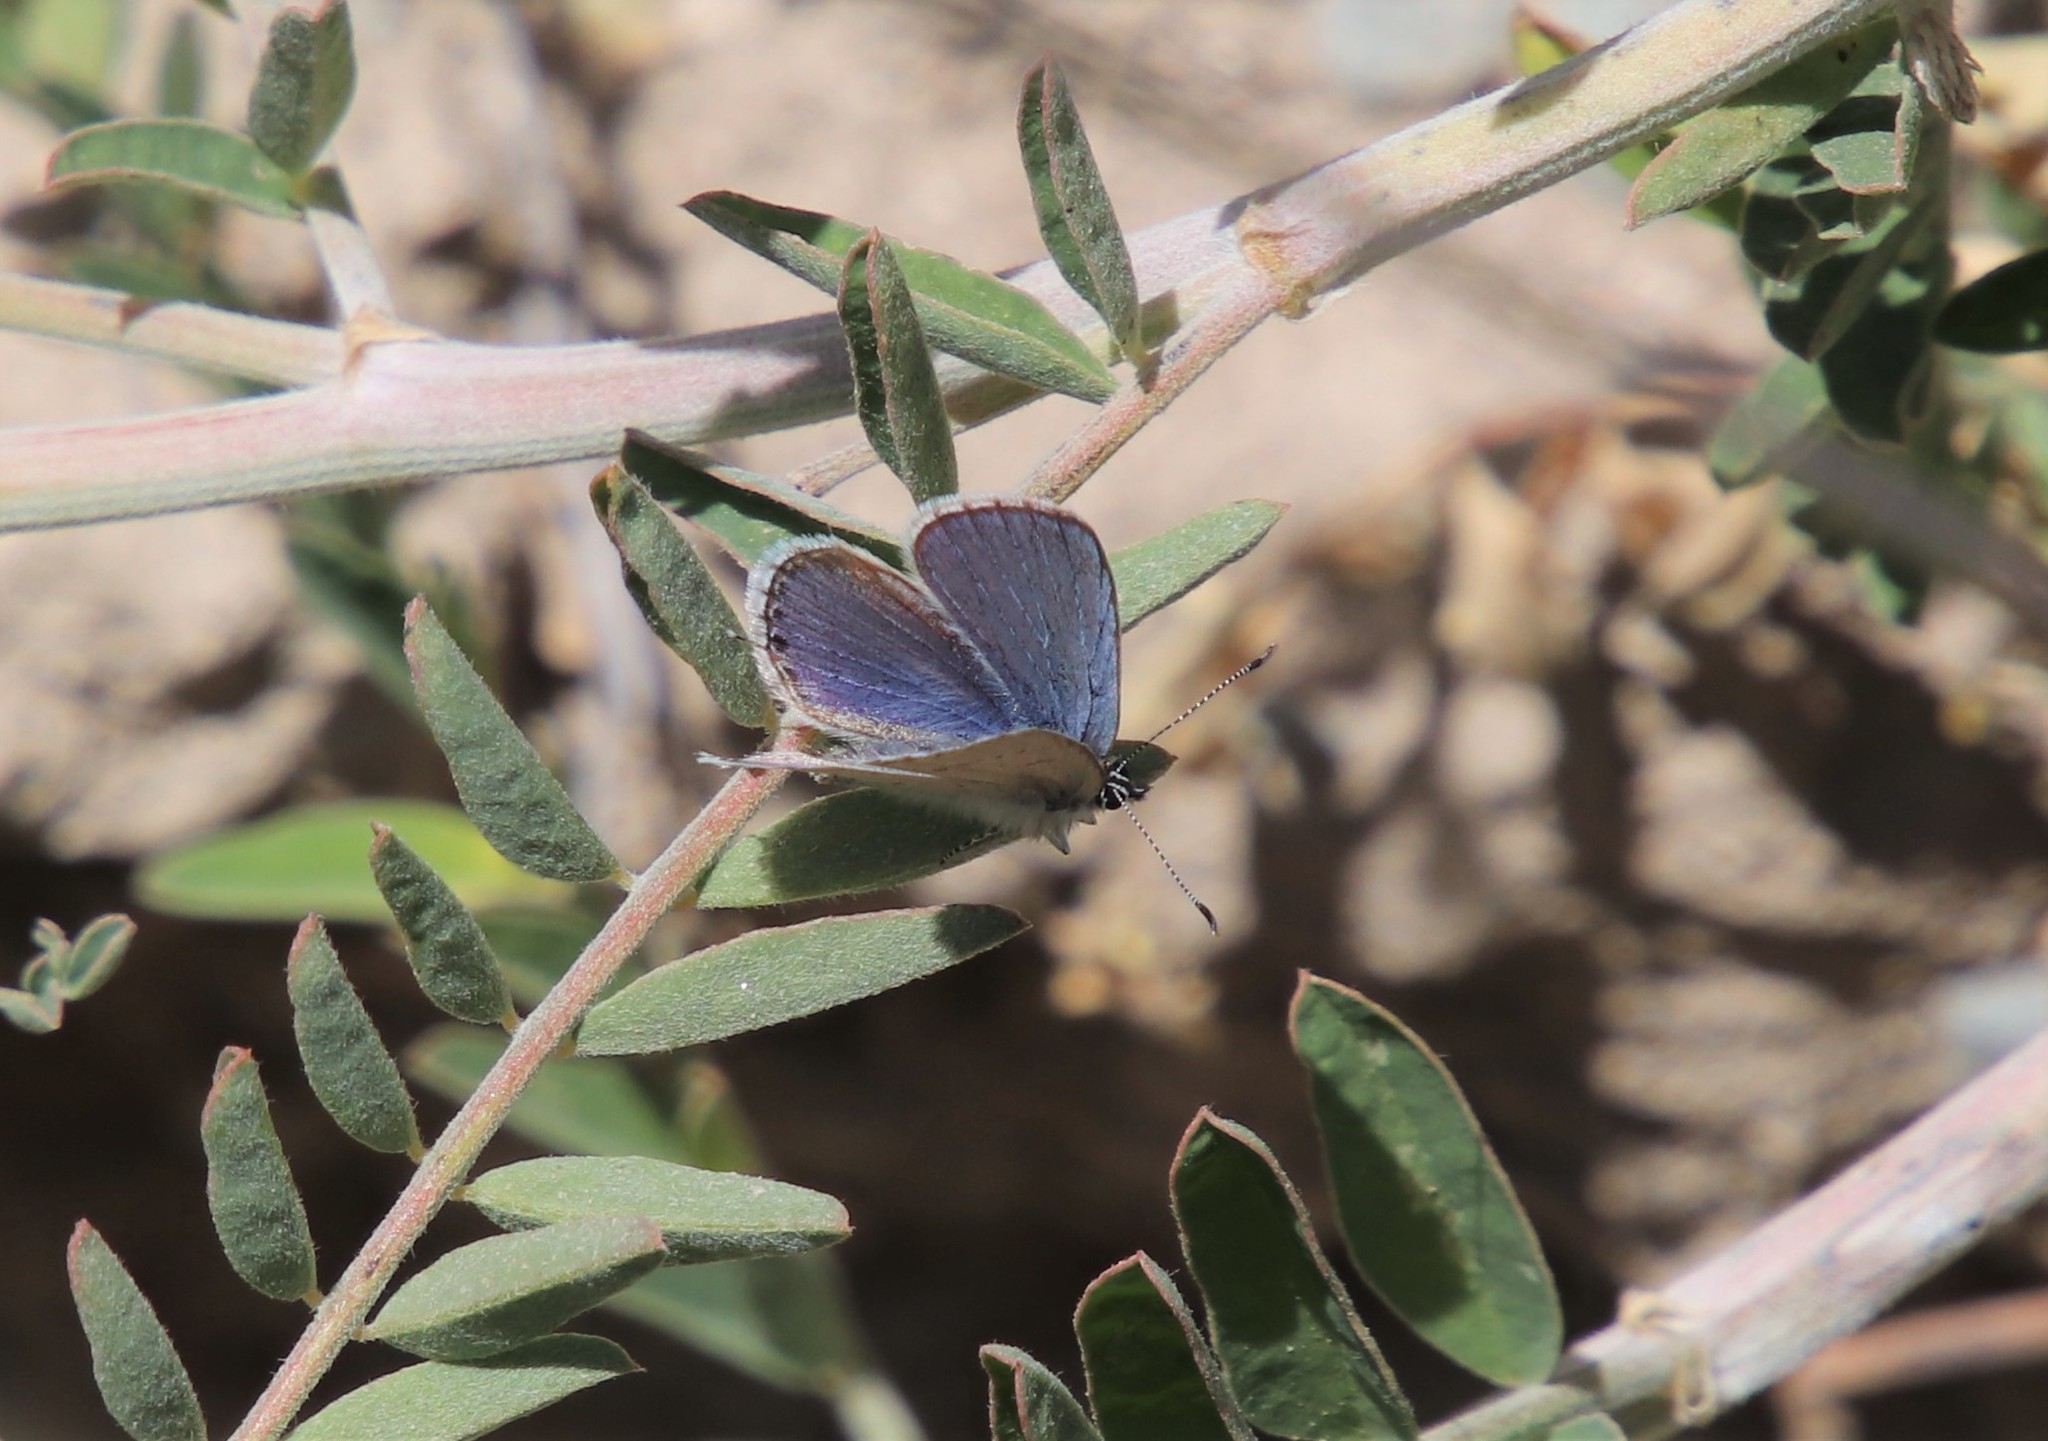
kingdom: Animalia
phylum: Arthropoda
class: Insecta
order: Lepidoptera
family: Lycaenidae
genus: Elkalyce
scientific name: Elkalyce amyntula
